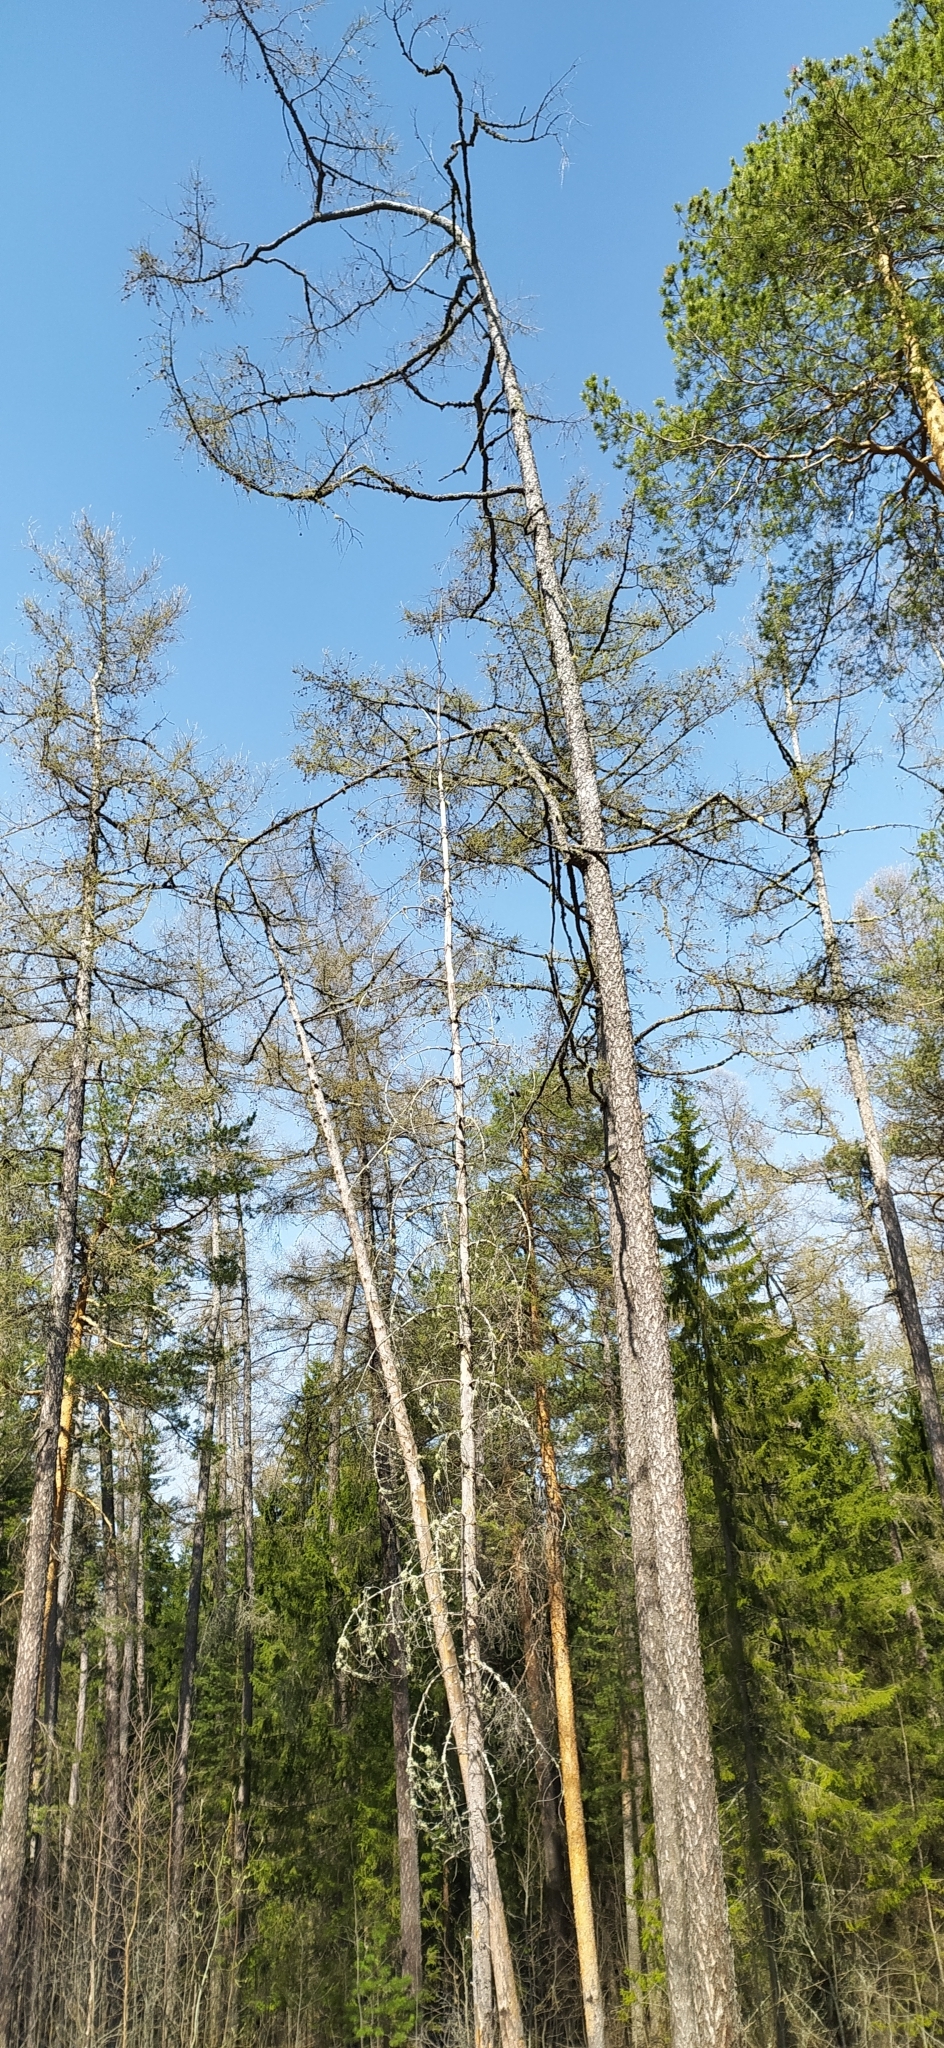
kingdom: Plantae
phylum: Tracheophyta
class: Pinopsida
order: Pinales
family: Pinaceae
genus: Larix
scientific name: Larix sibirica
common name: Siberian larch
